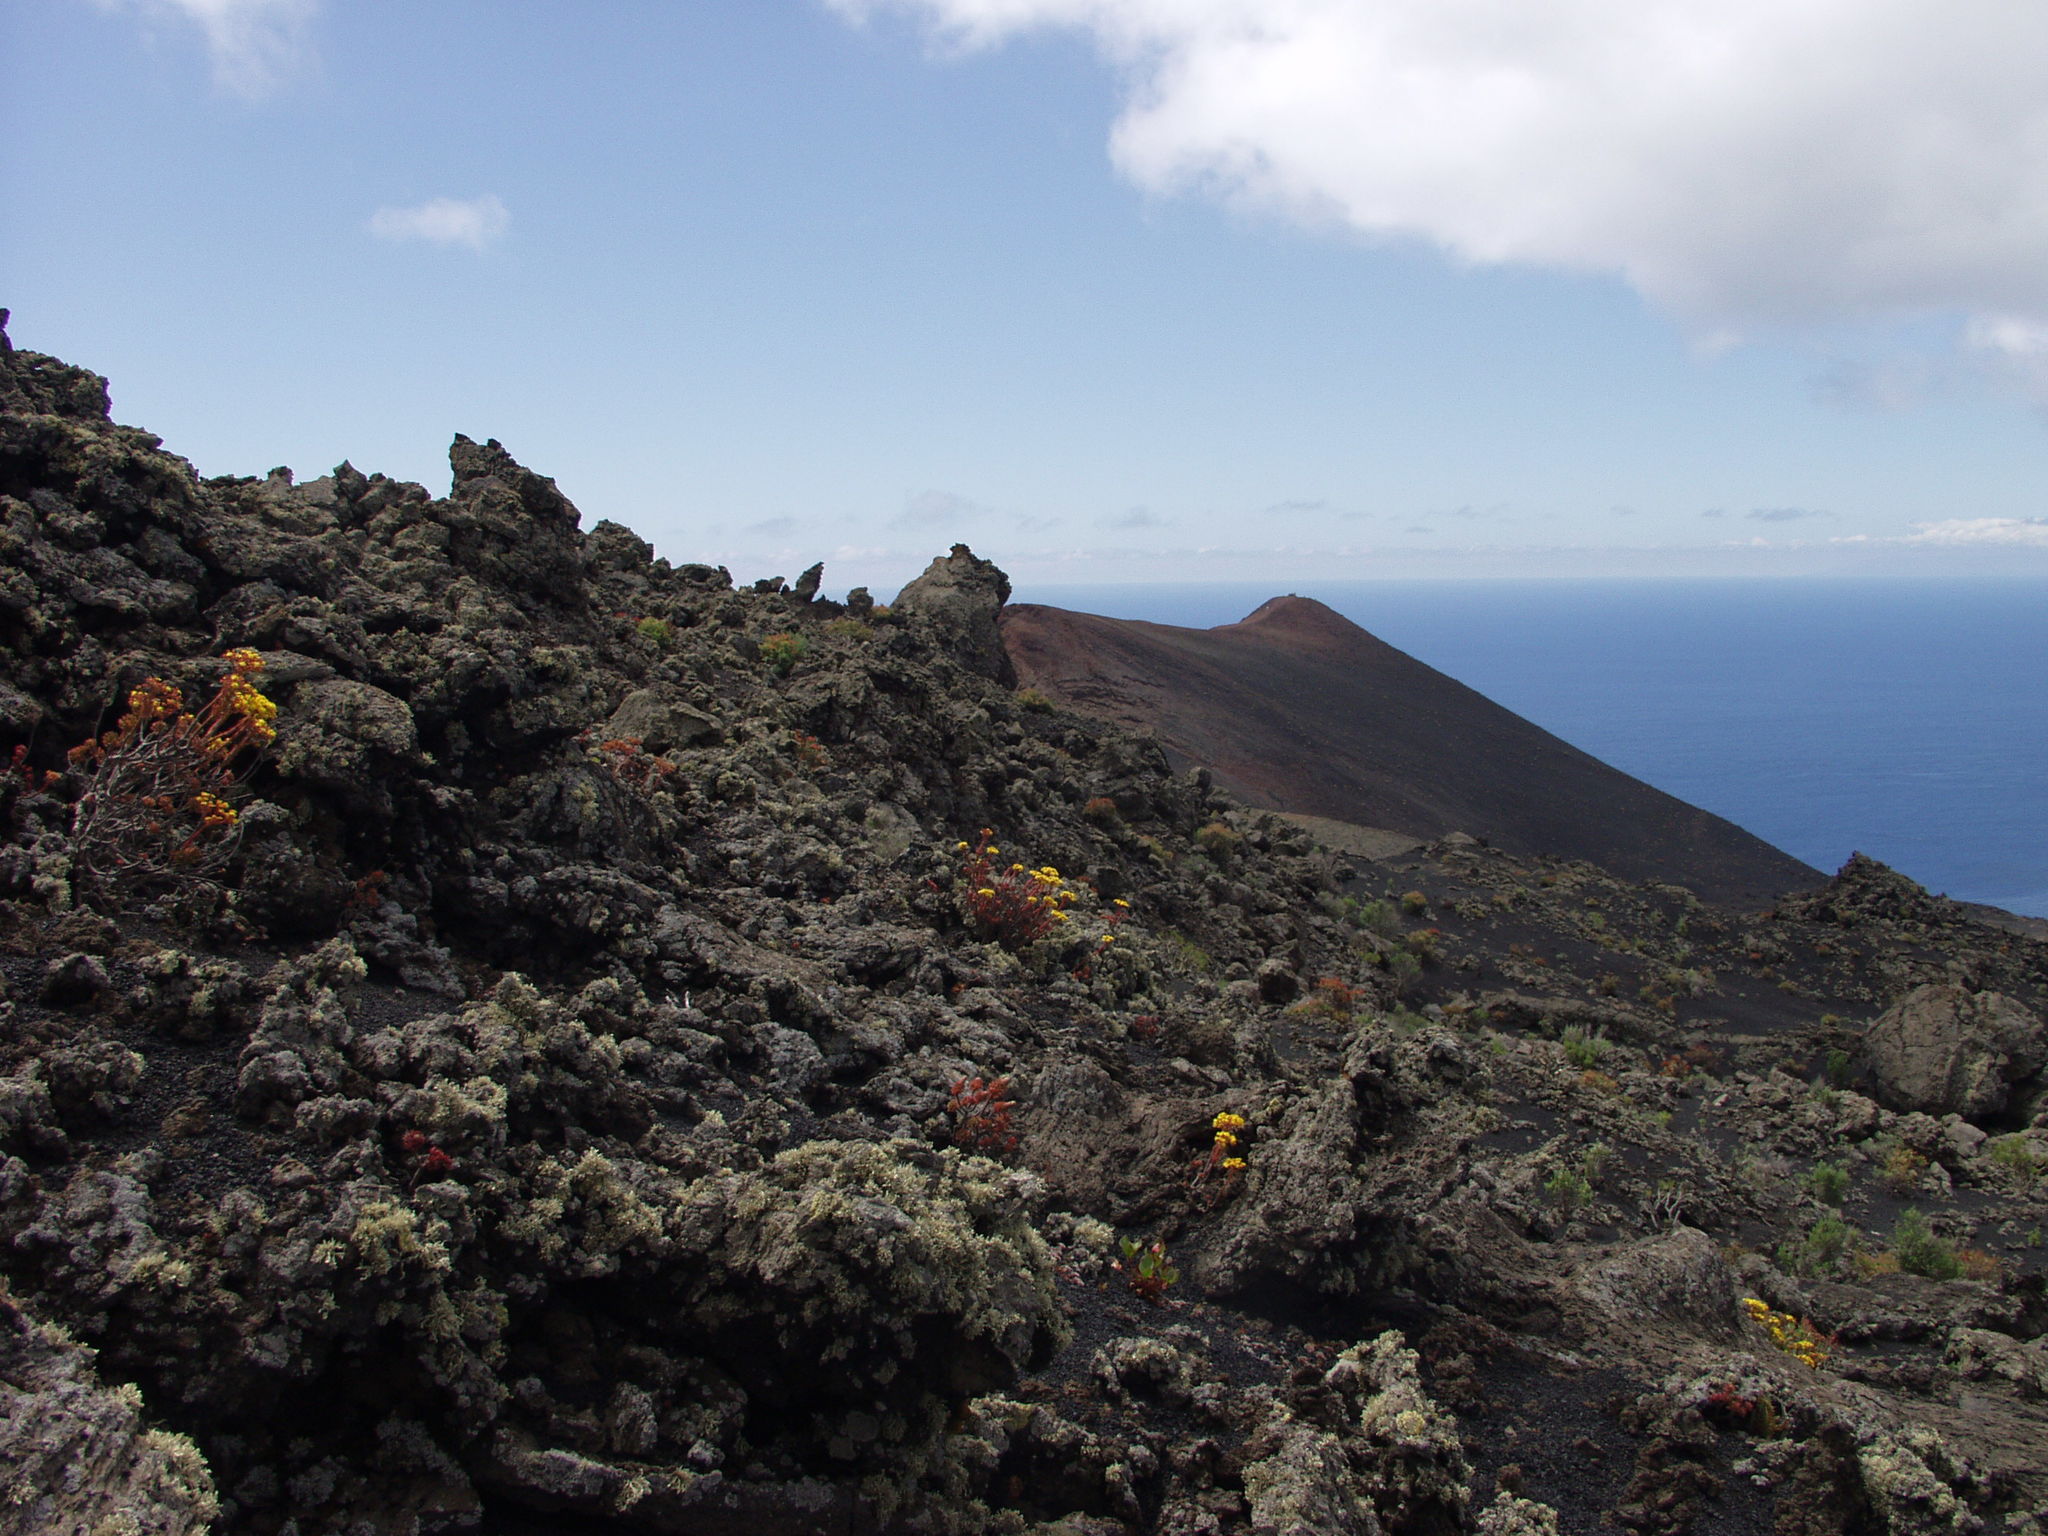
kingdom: Plantae
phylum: Tracheophyta
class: Magnoliopsida
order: Saxifragales
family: Crassulaceae
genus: Aeonium
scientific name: Aeonium spathulatum
